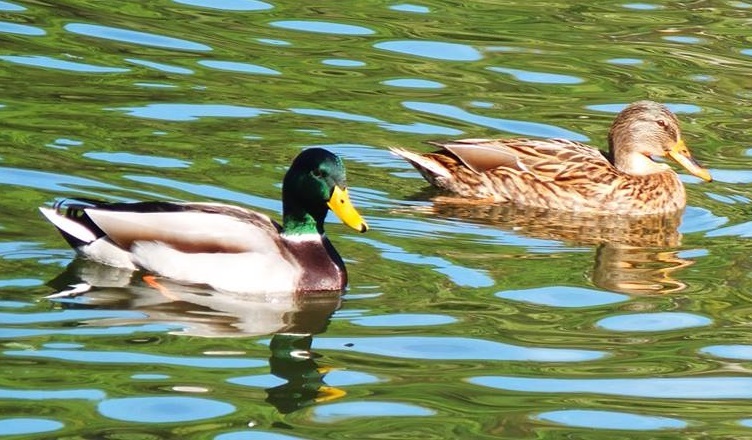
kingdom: Animalia
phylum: Chordata
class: Aves
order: Anseriformes
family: Anatidae
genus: Anas
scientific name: Anas platyrhynchos
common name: Mallard
